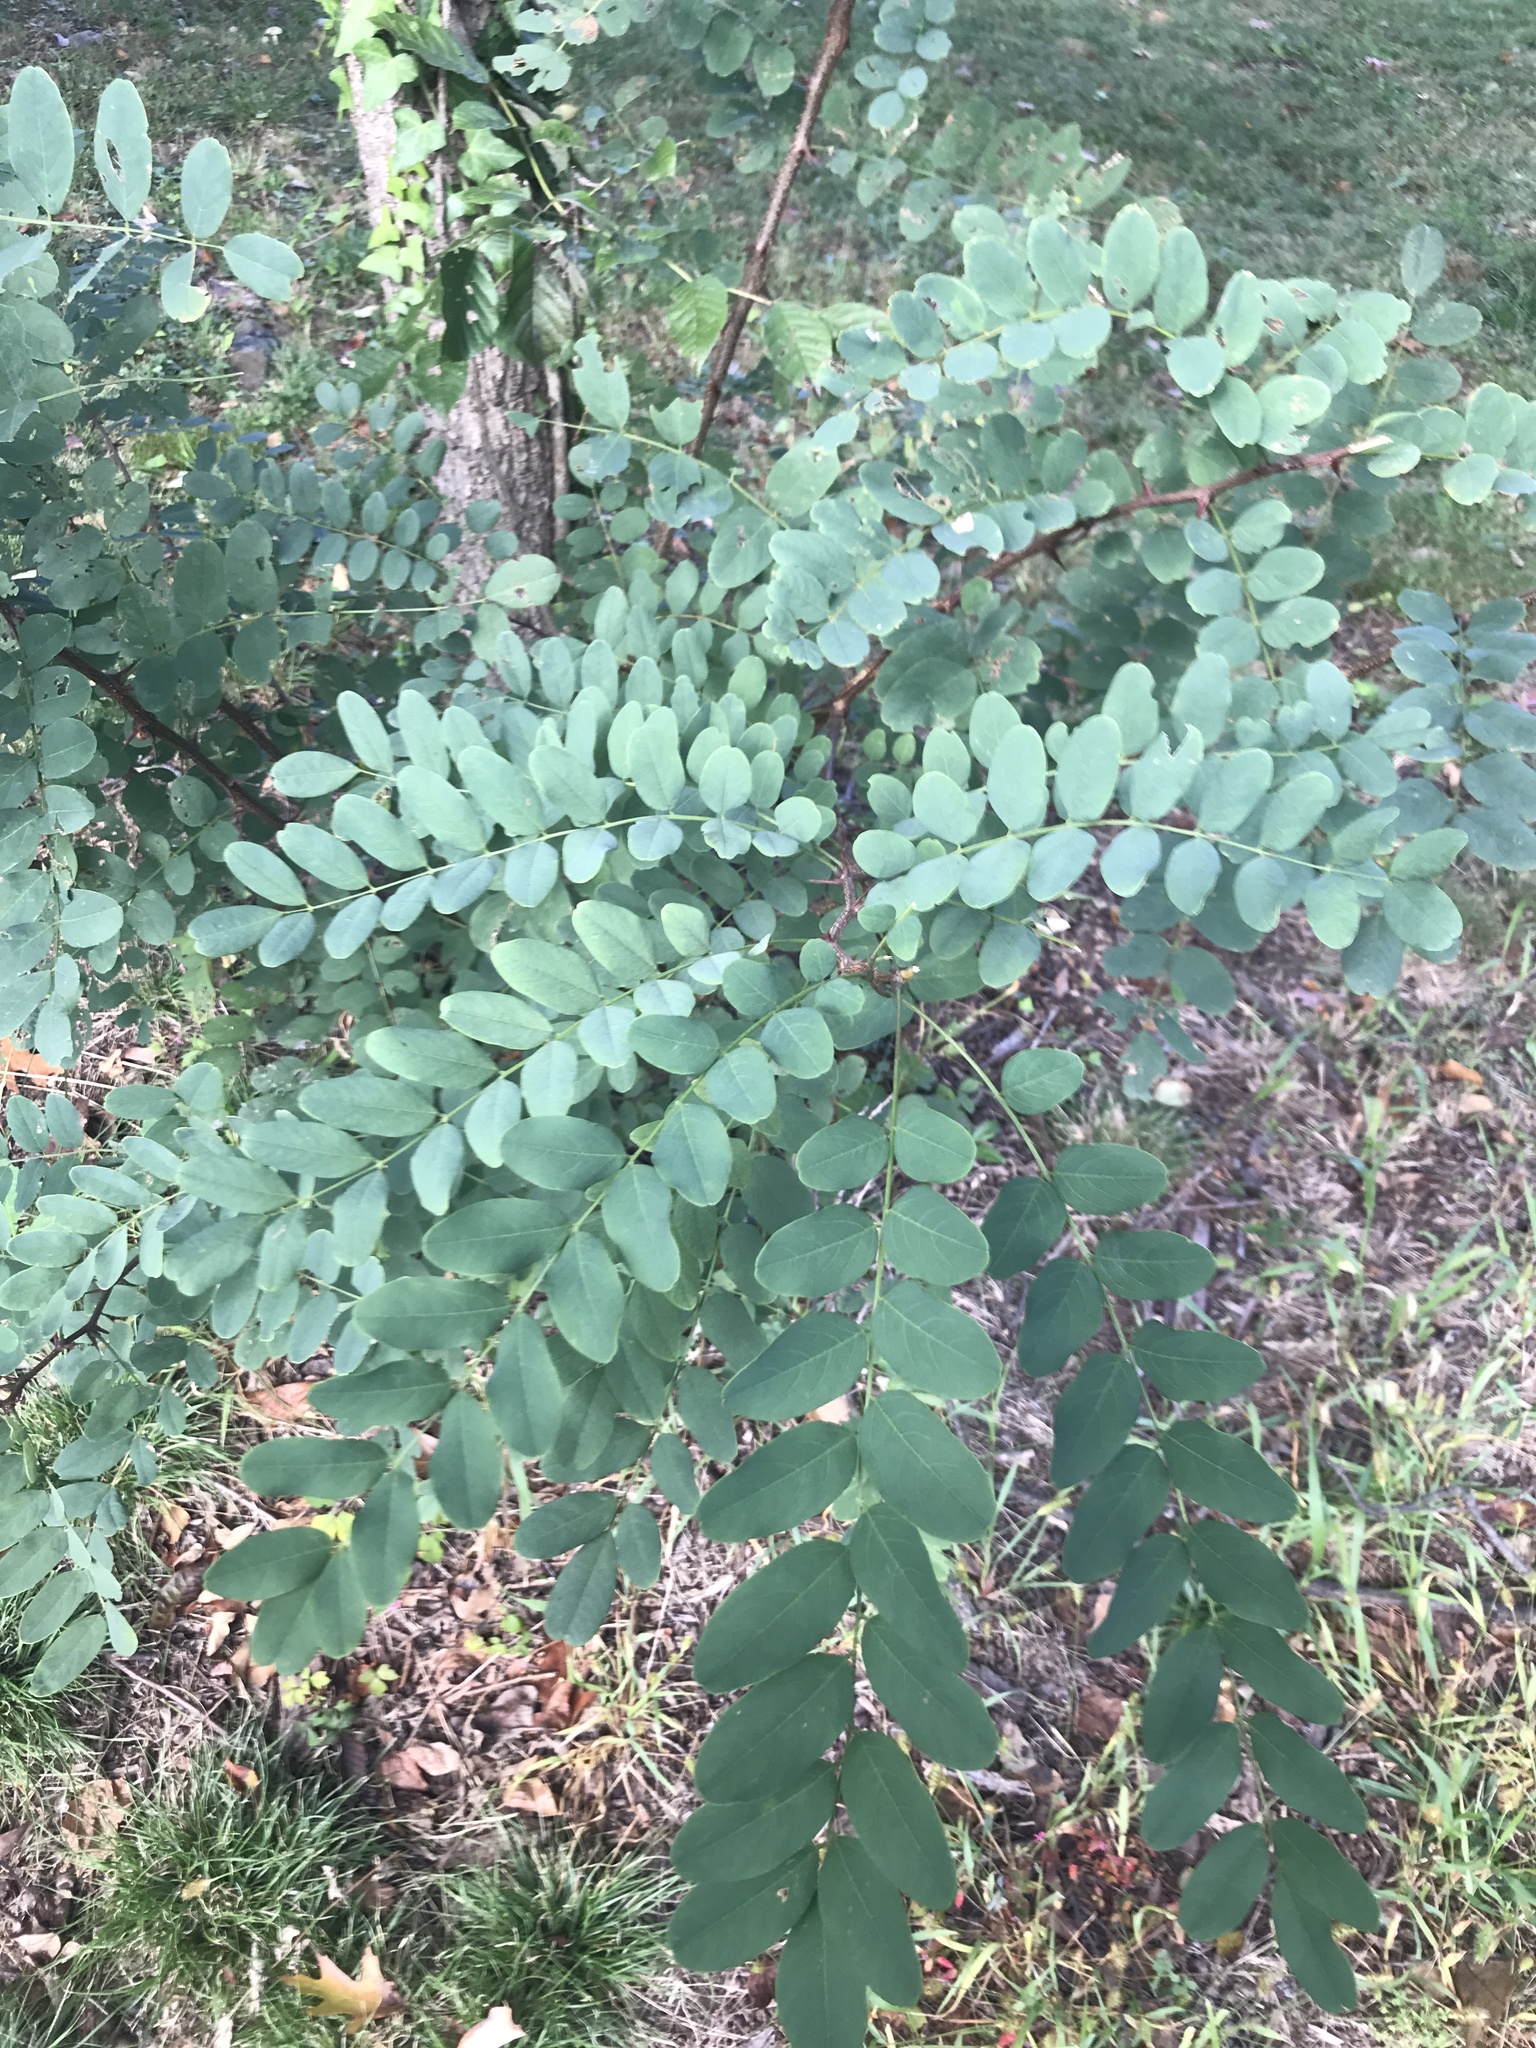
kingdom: Plantae
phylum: Tracheophyta
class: Magnoliopsida
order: Fabales
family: Fabaceae
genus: Robinia
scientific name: Robinia pseudoacacia
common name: Black locust
